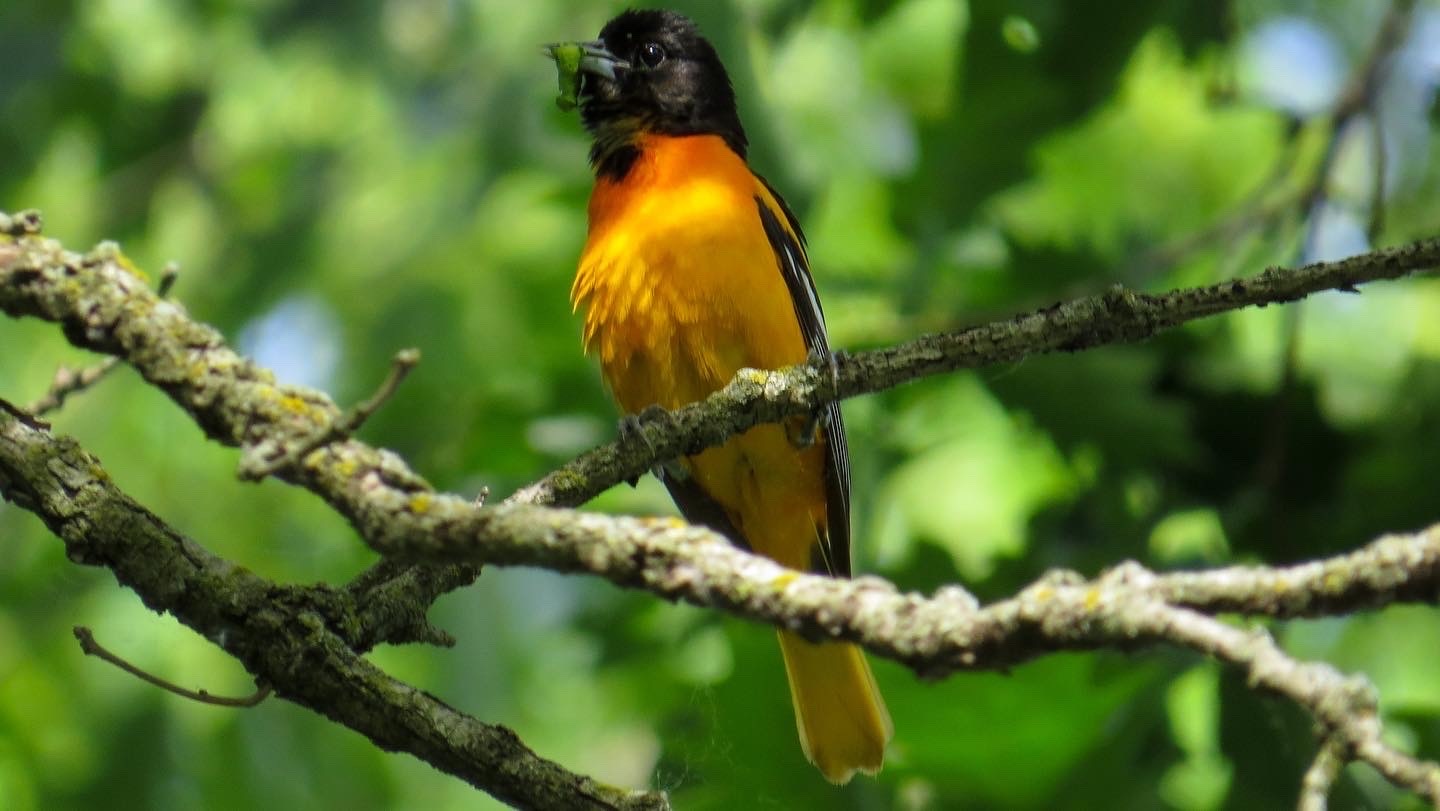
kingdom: Animalia
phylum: Chordata
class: Aves
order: Passeriformes
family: Icteridae
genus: Icterus
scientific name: Icterus galbula
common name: Baltimore oriole
